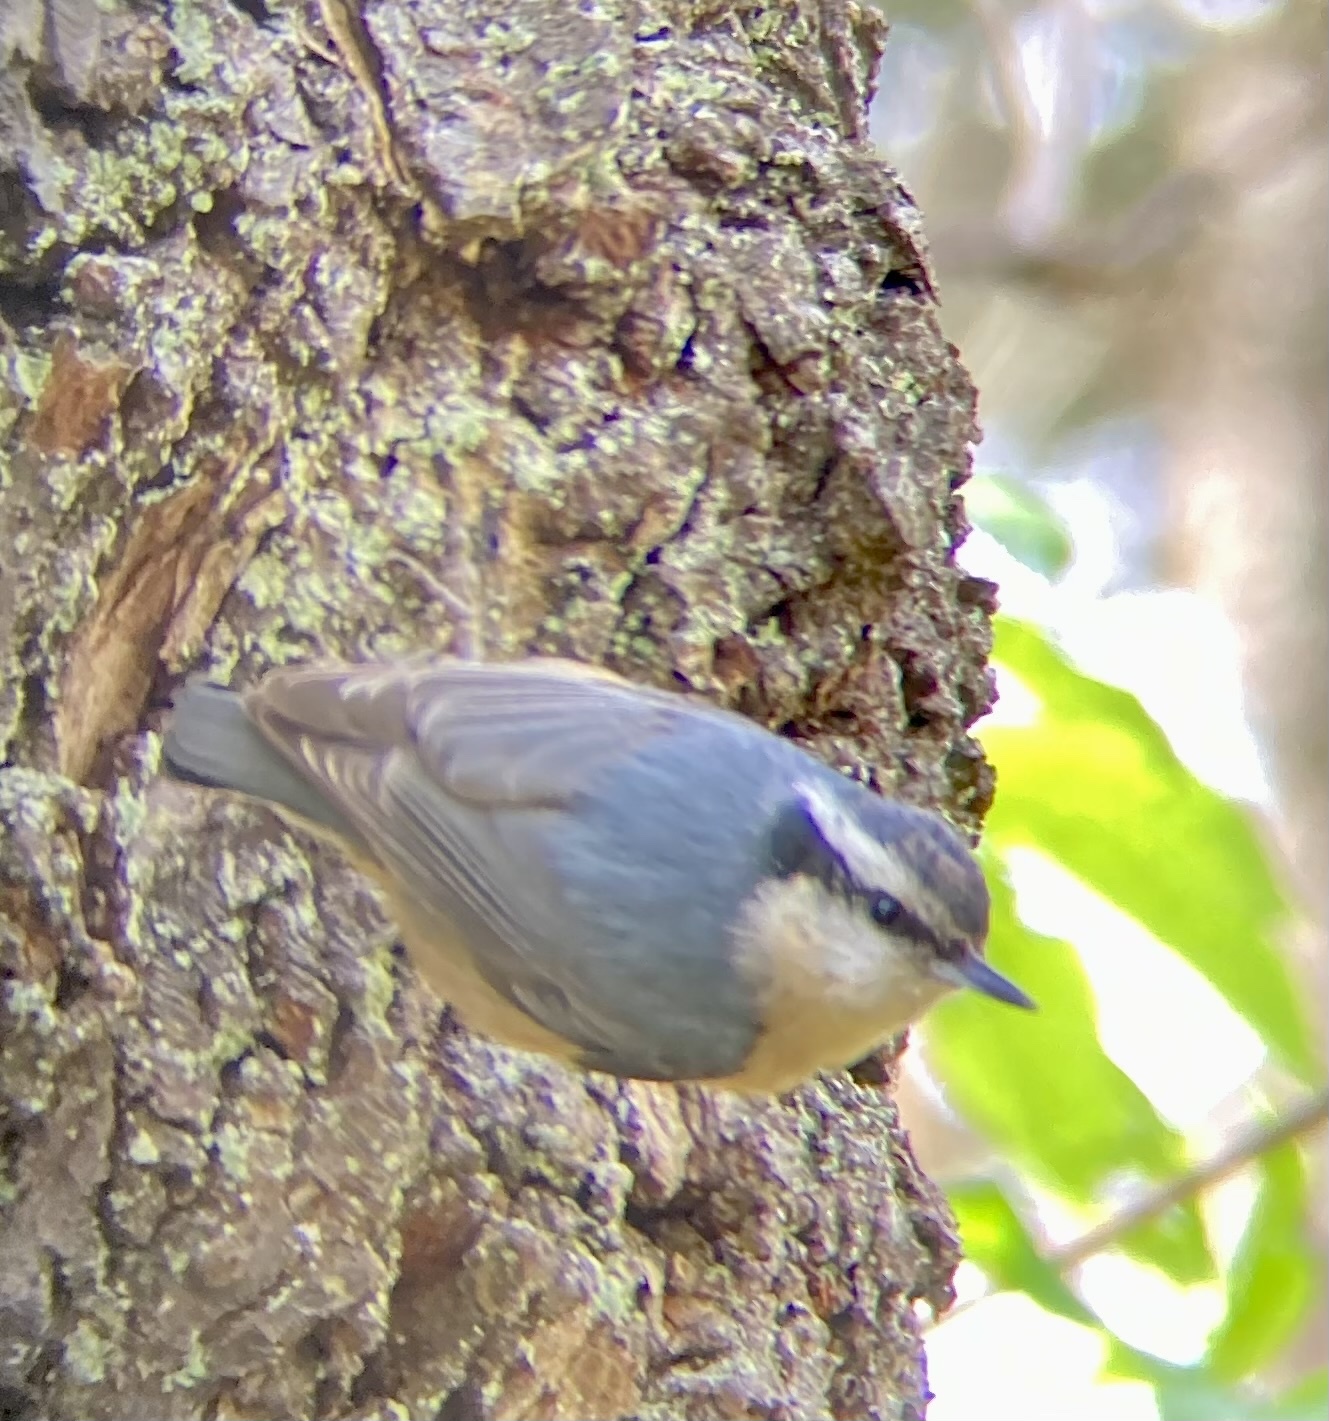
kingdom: Animalia
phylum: Chordata
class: Aves
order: Passeriformes
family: Sittidae
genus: Sitta
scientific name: Sitta canadensis
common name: Red-breasted nuthatch
